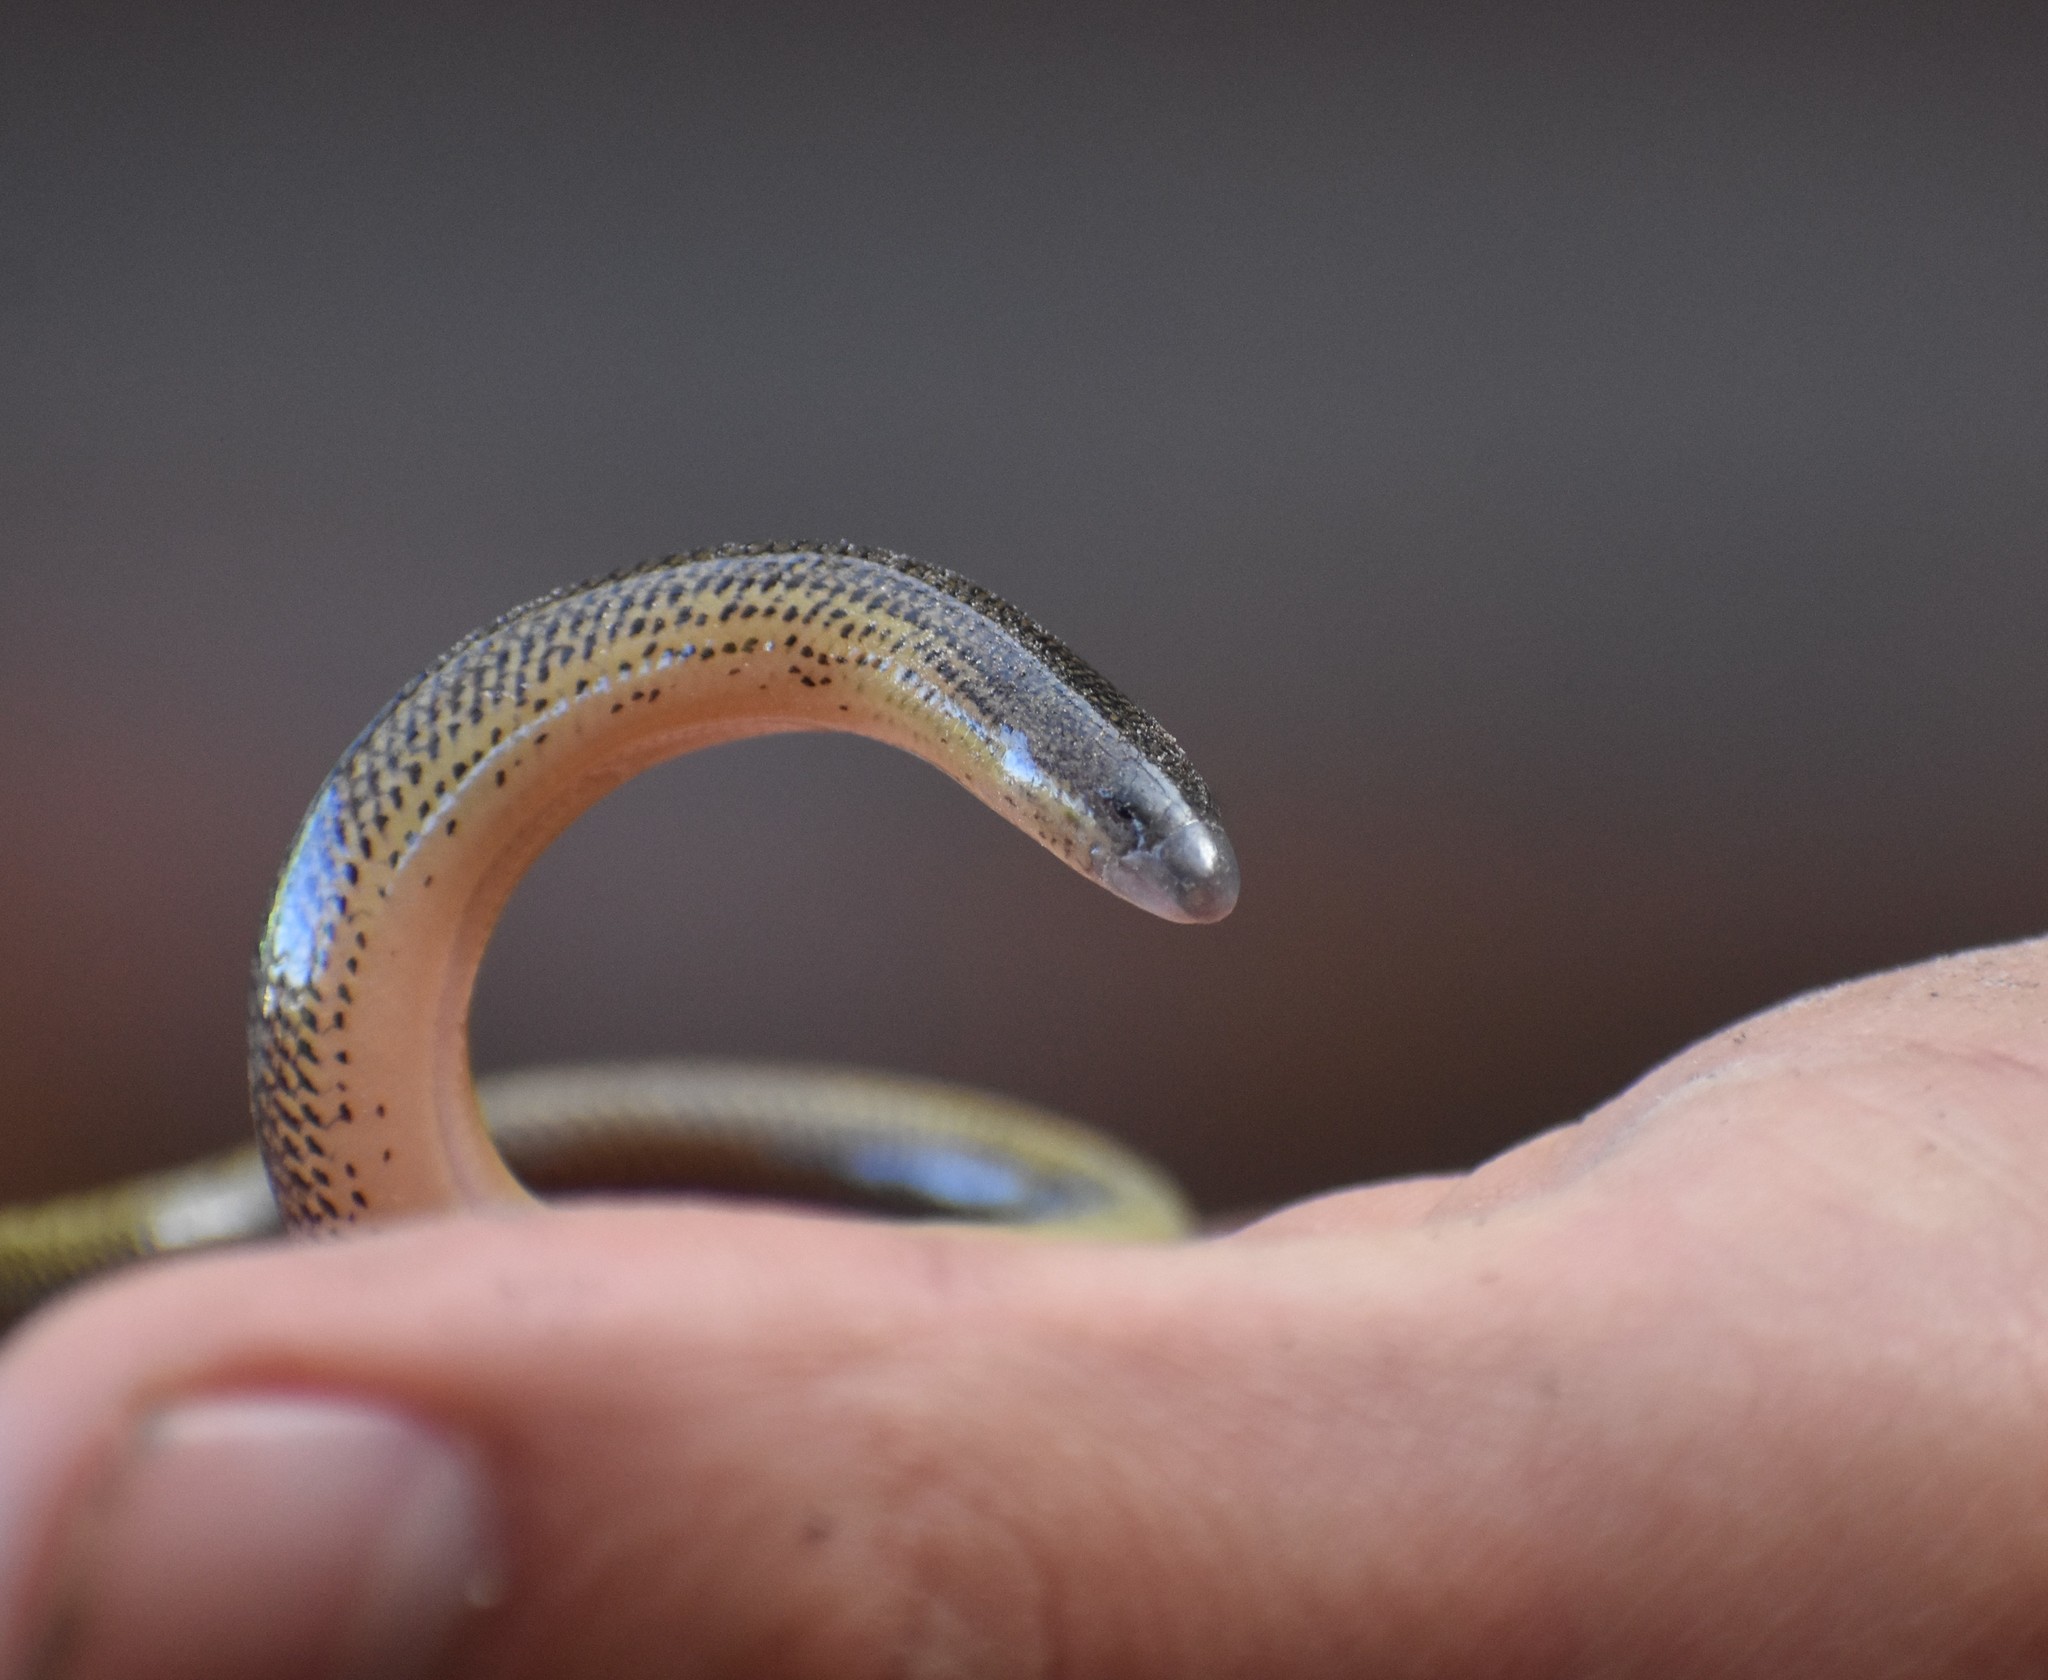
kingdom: Animalia
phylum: Chordata
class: Squamata
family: Scincidae
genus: Acontias
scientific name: Acontias meleagris
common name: Cape legless skink
